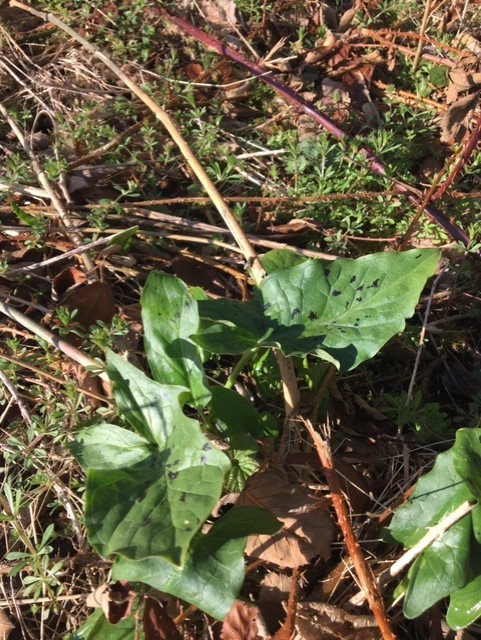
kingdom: Plantae
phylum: Tracheophyta
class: Liliopsida
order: Alismatales
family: Araceae
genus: Arum
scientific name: Arum maculatum
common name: Lords-and-ladies
